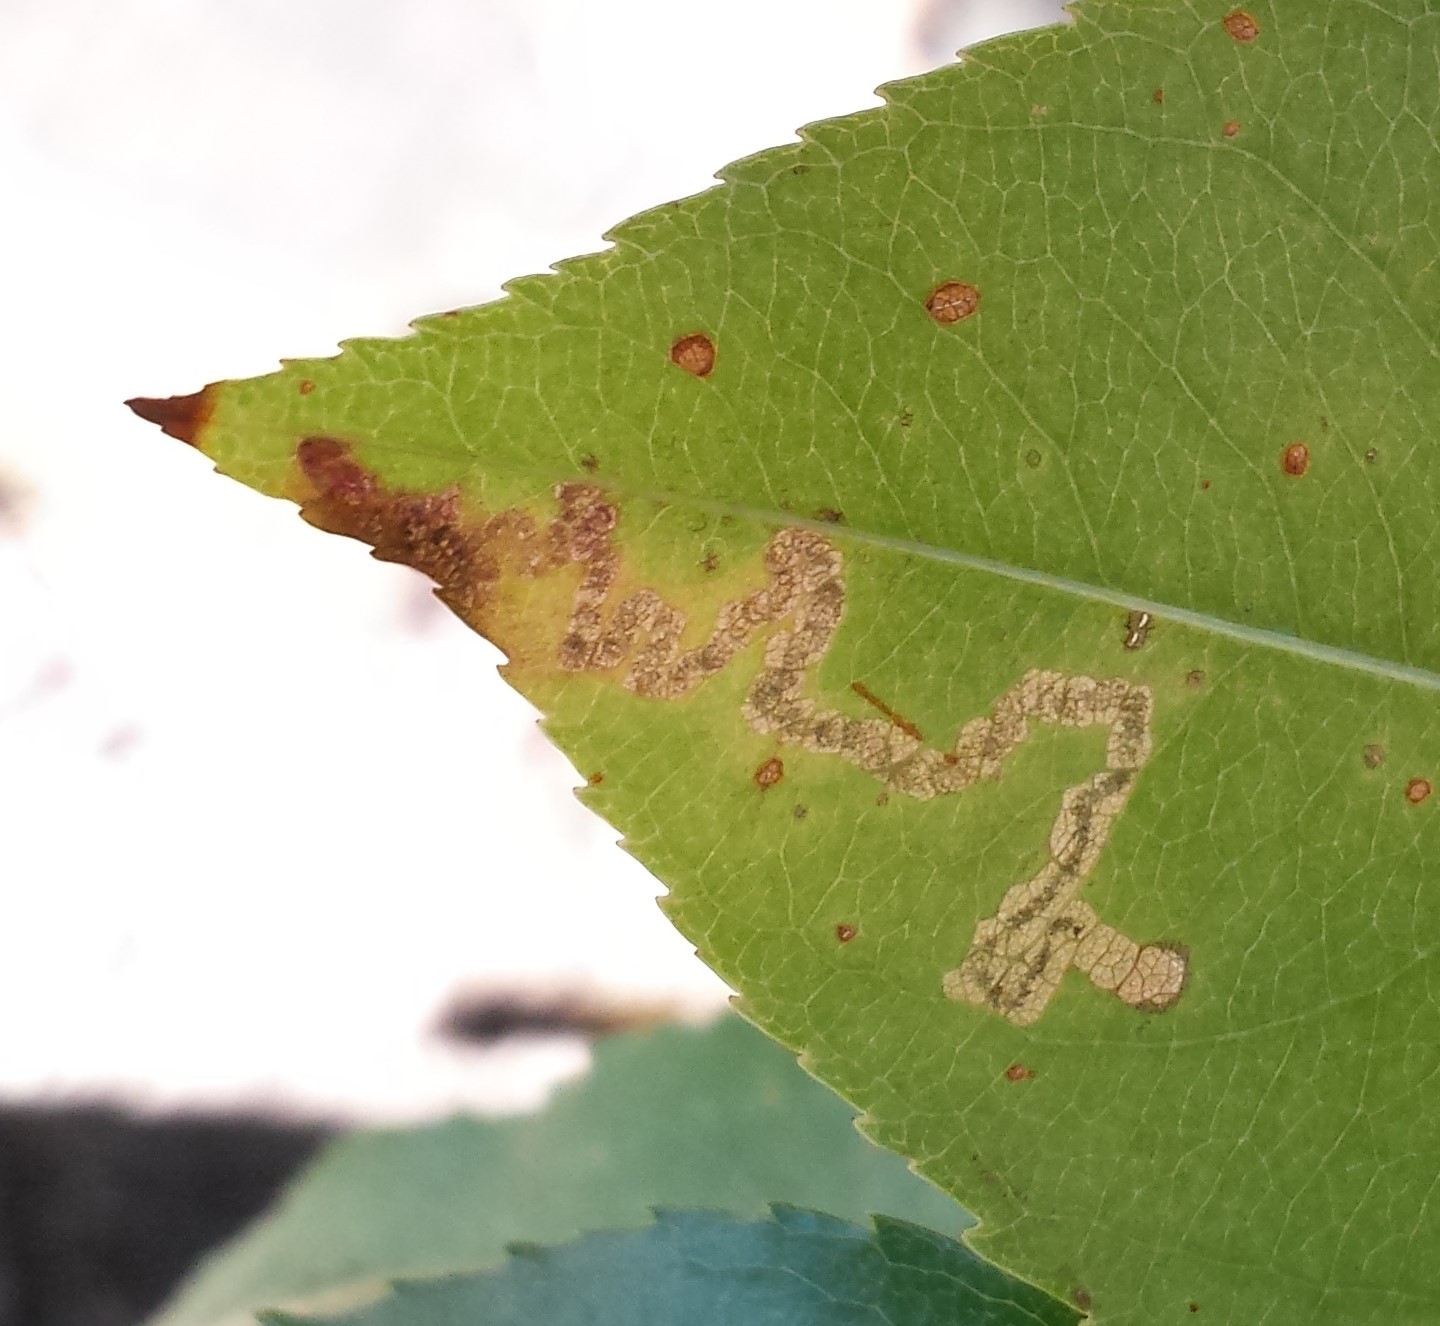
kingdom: Animalia
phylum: Arthropoda
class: Insecta
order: Lepidoptera
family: Nepticulidae
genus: Stigmella
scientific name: Stigmella prunifoliella
